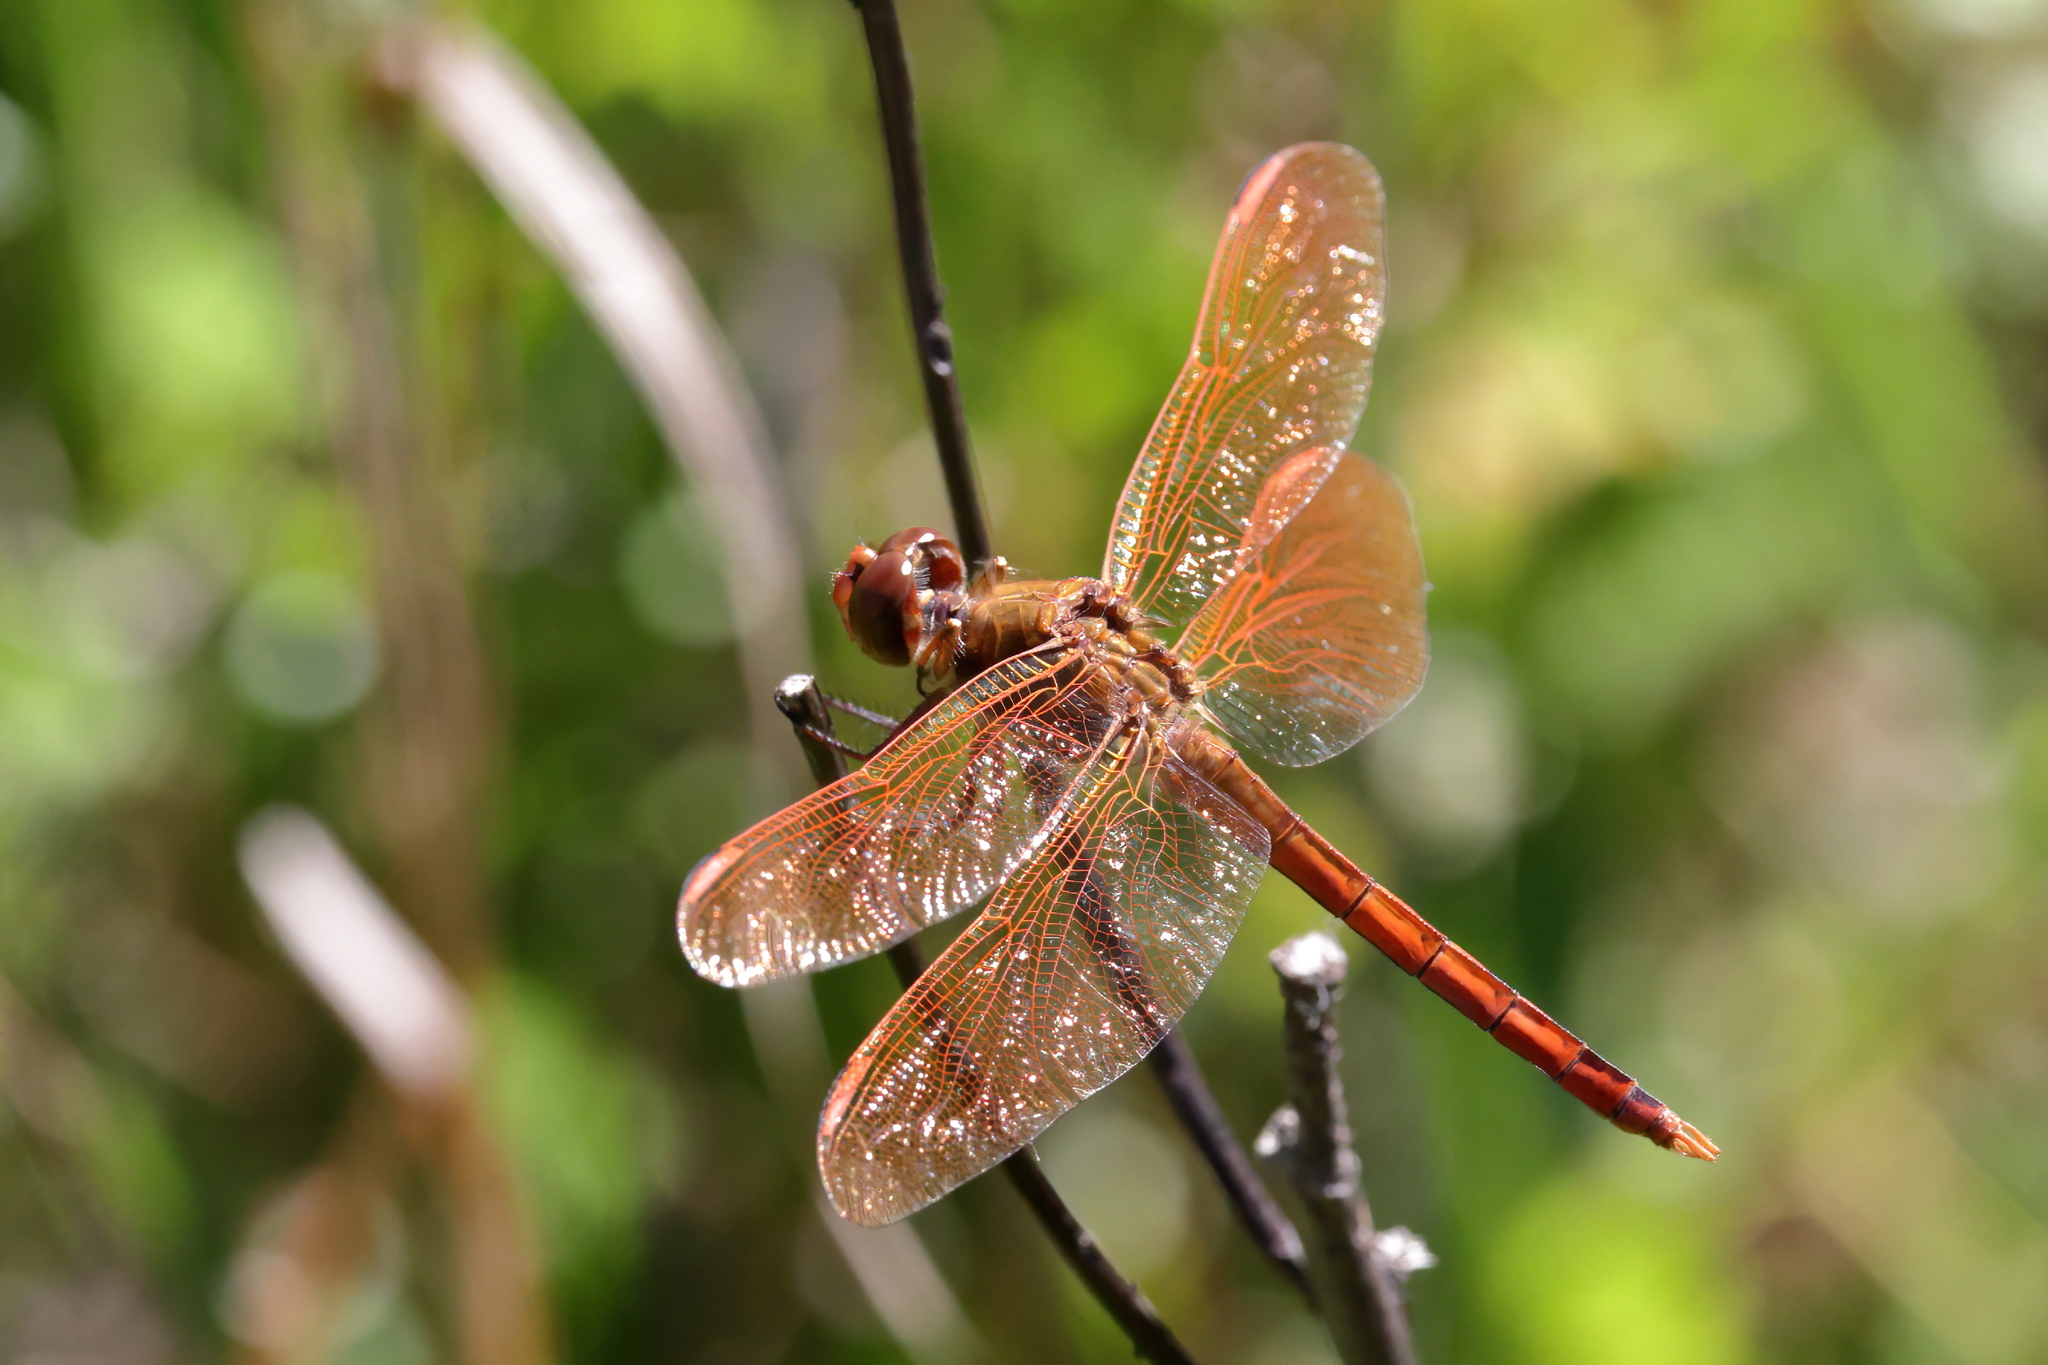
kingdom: Animalia
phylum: Arthropoda
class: Insecta
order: Odonata
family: Libellulidae
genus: Libellula
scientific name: Libellula auripennis
